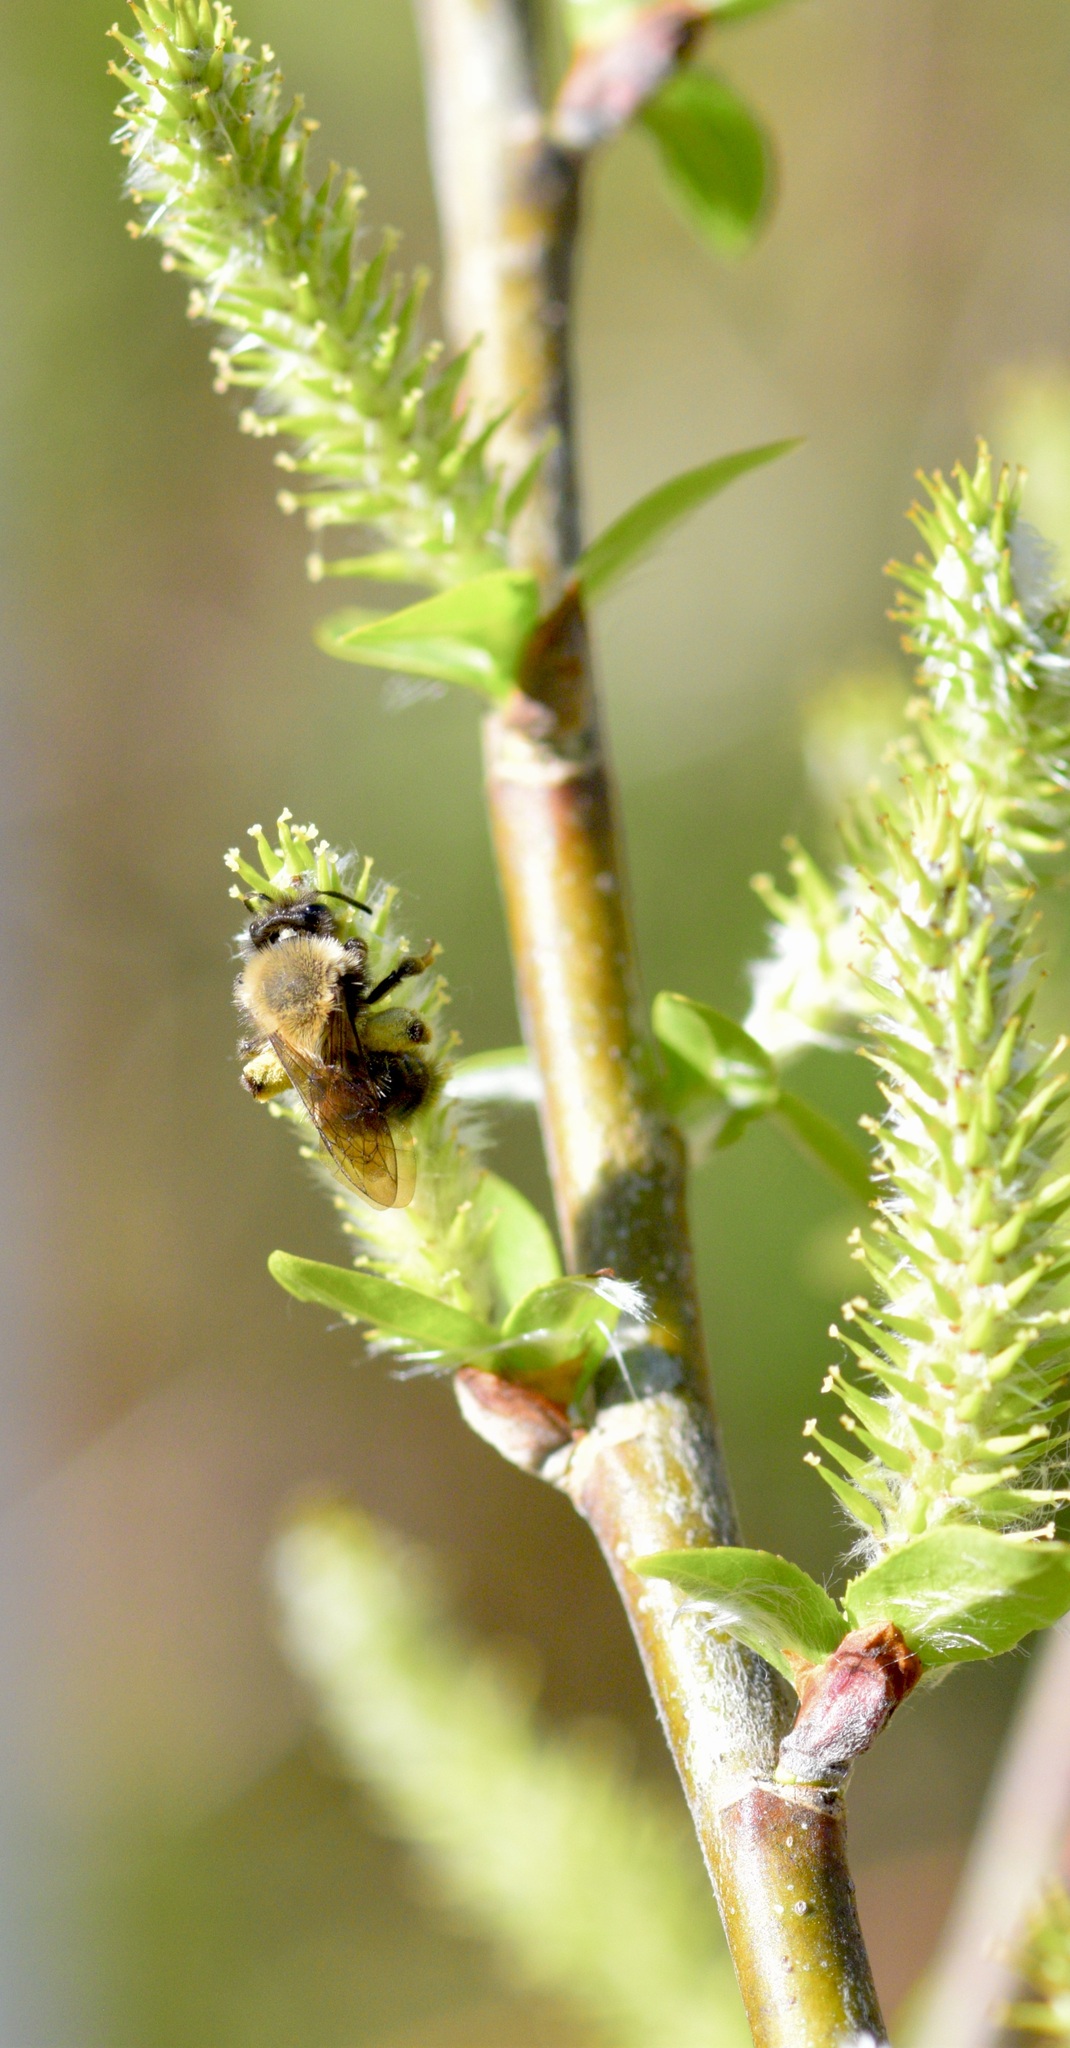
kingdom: Animalia
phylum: Arthropoda
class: Insecta
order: Hymenoptera
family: Andrenidae
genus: Andrena
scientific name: Andrena clarkella
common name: Clarke's mining bee
